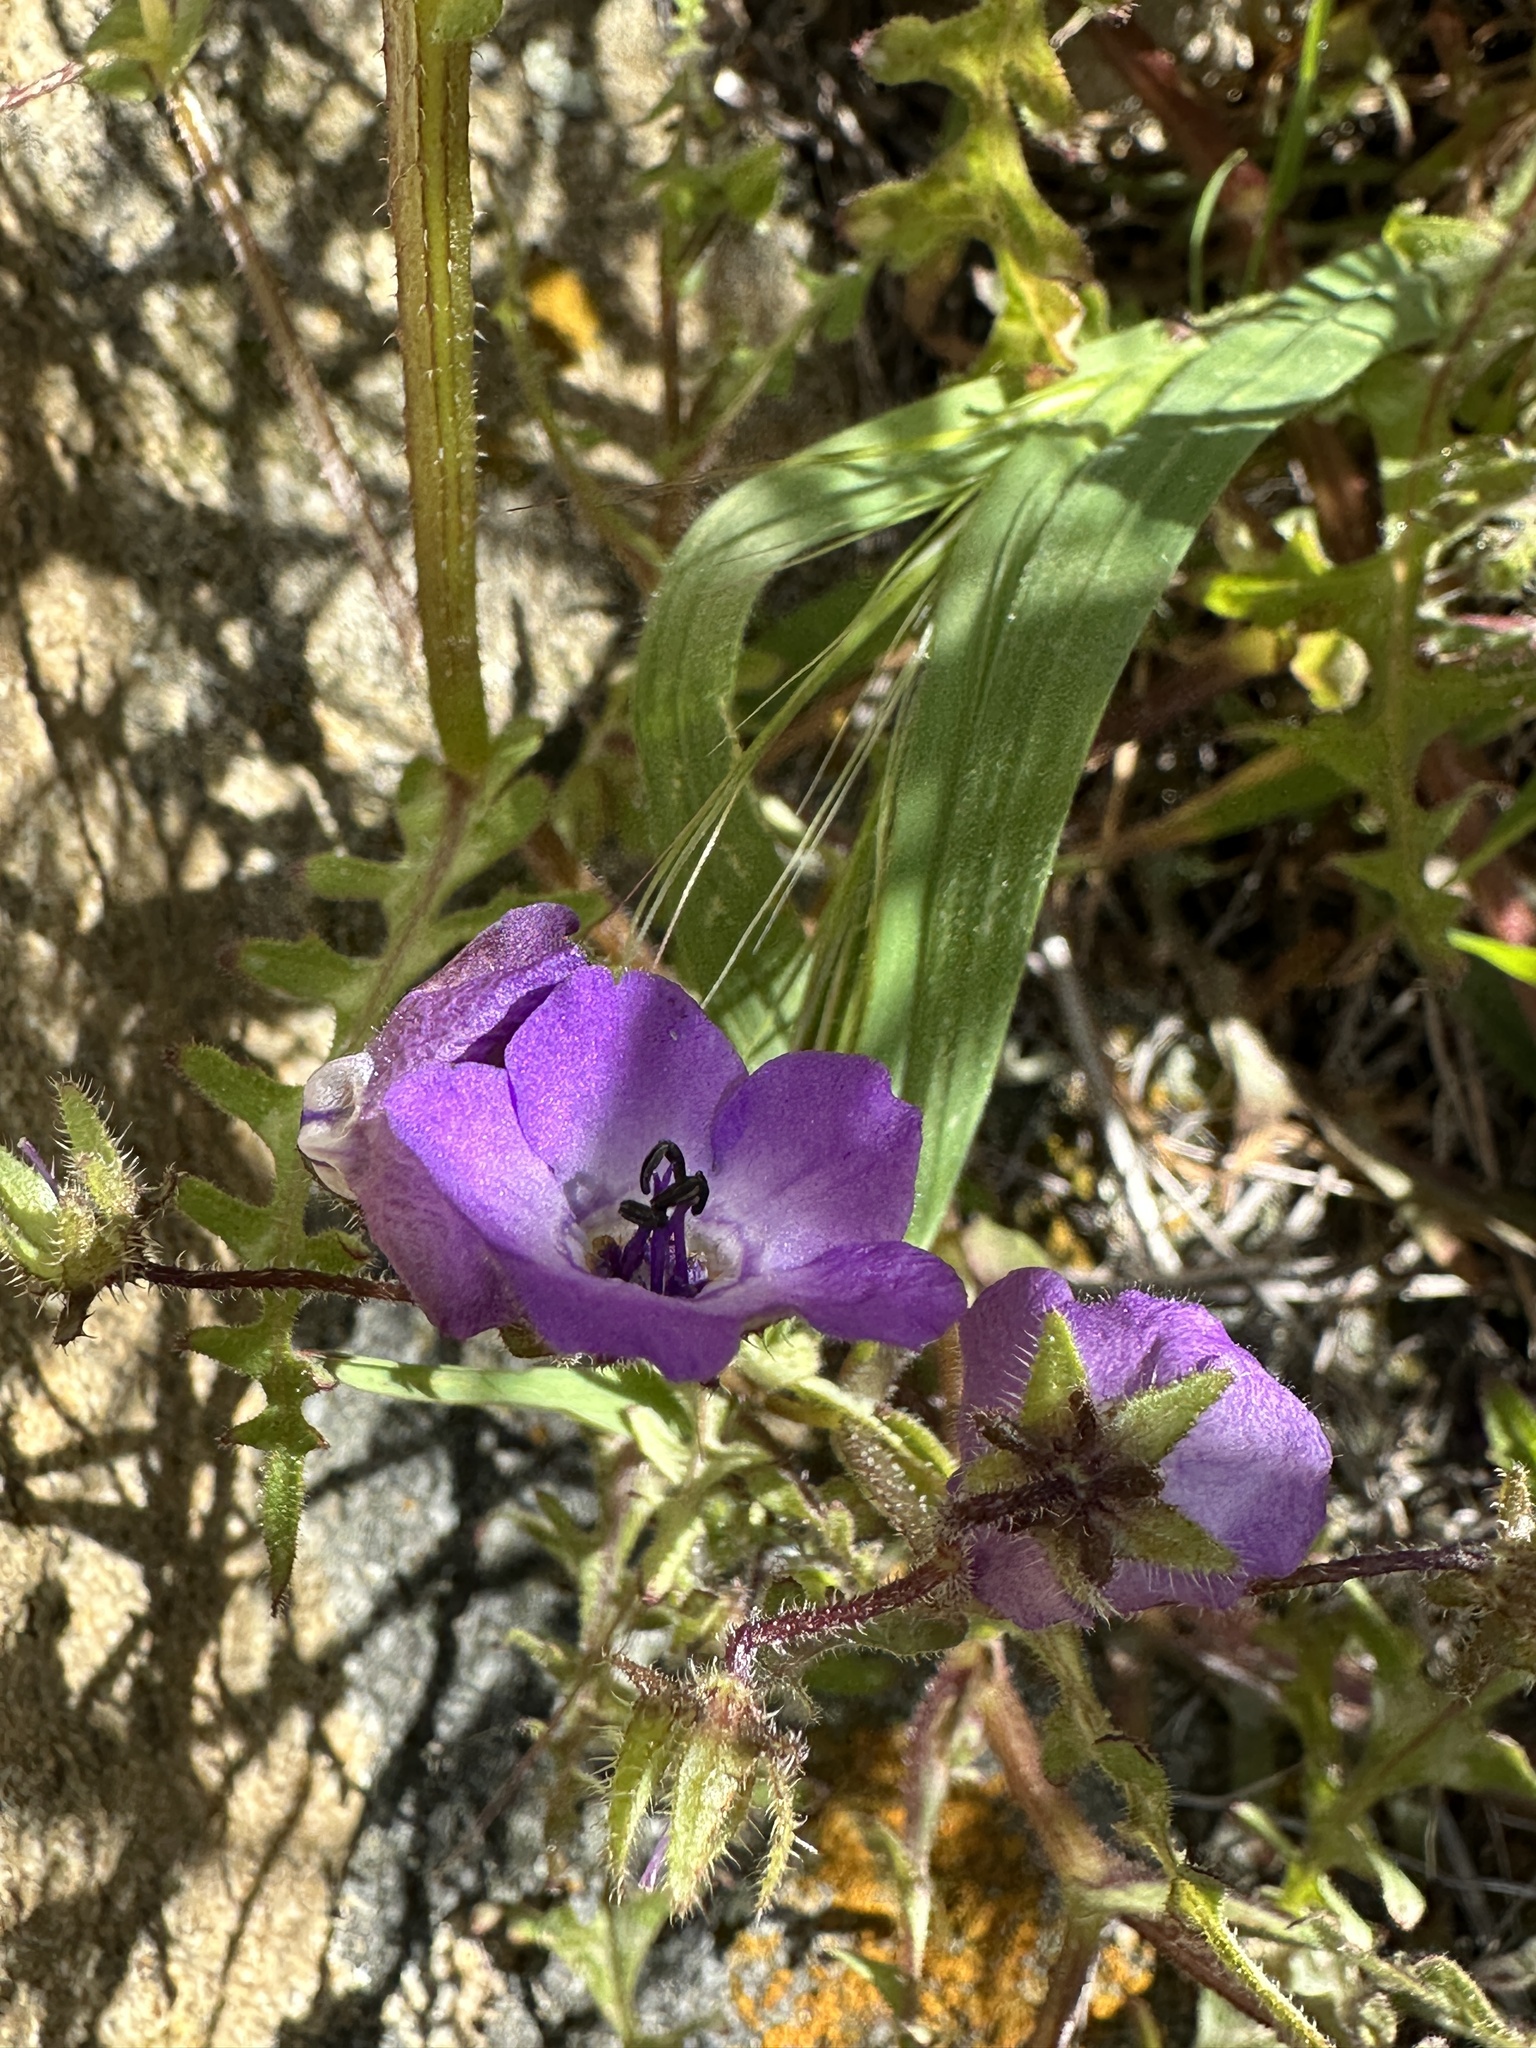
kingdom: Plantae
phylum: Tracheophyta
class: Magnoliopsida
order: Boraginales
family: Hydrophyllaceae
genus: Pholistoma
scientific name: Pholistoma auritum
